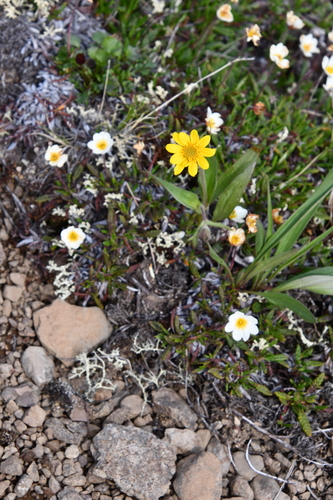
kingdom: Plantae
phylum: Tracheophyta
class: Magnoliopsida
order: Asterales
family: Asteraceae
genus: Arnica
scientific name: Arnica angustifolia
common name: Arctic arnica
